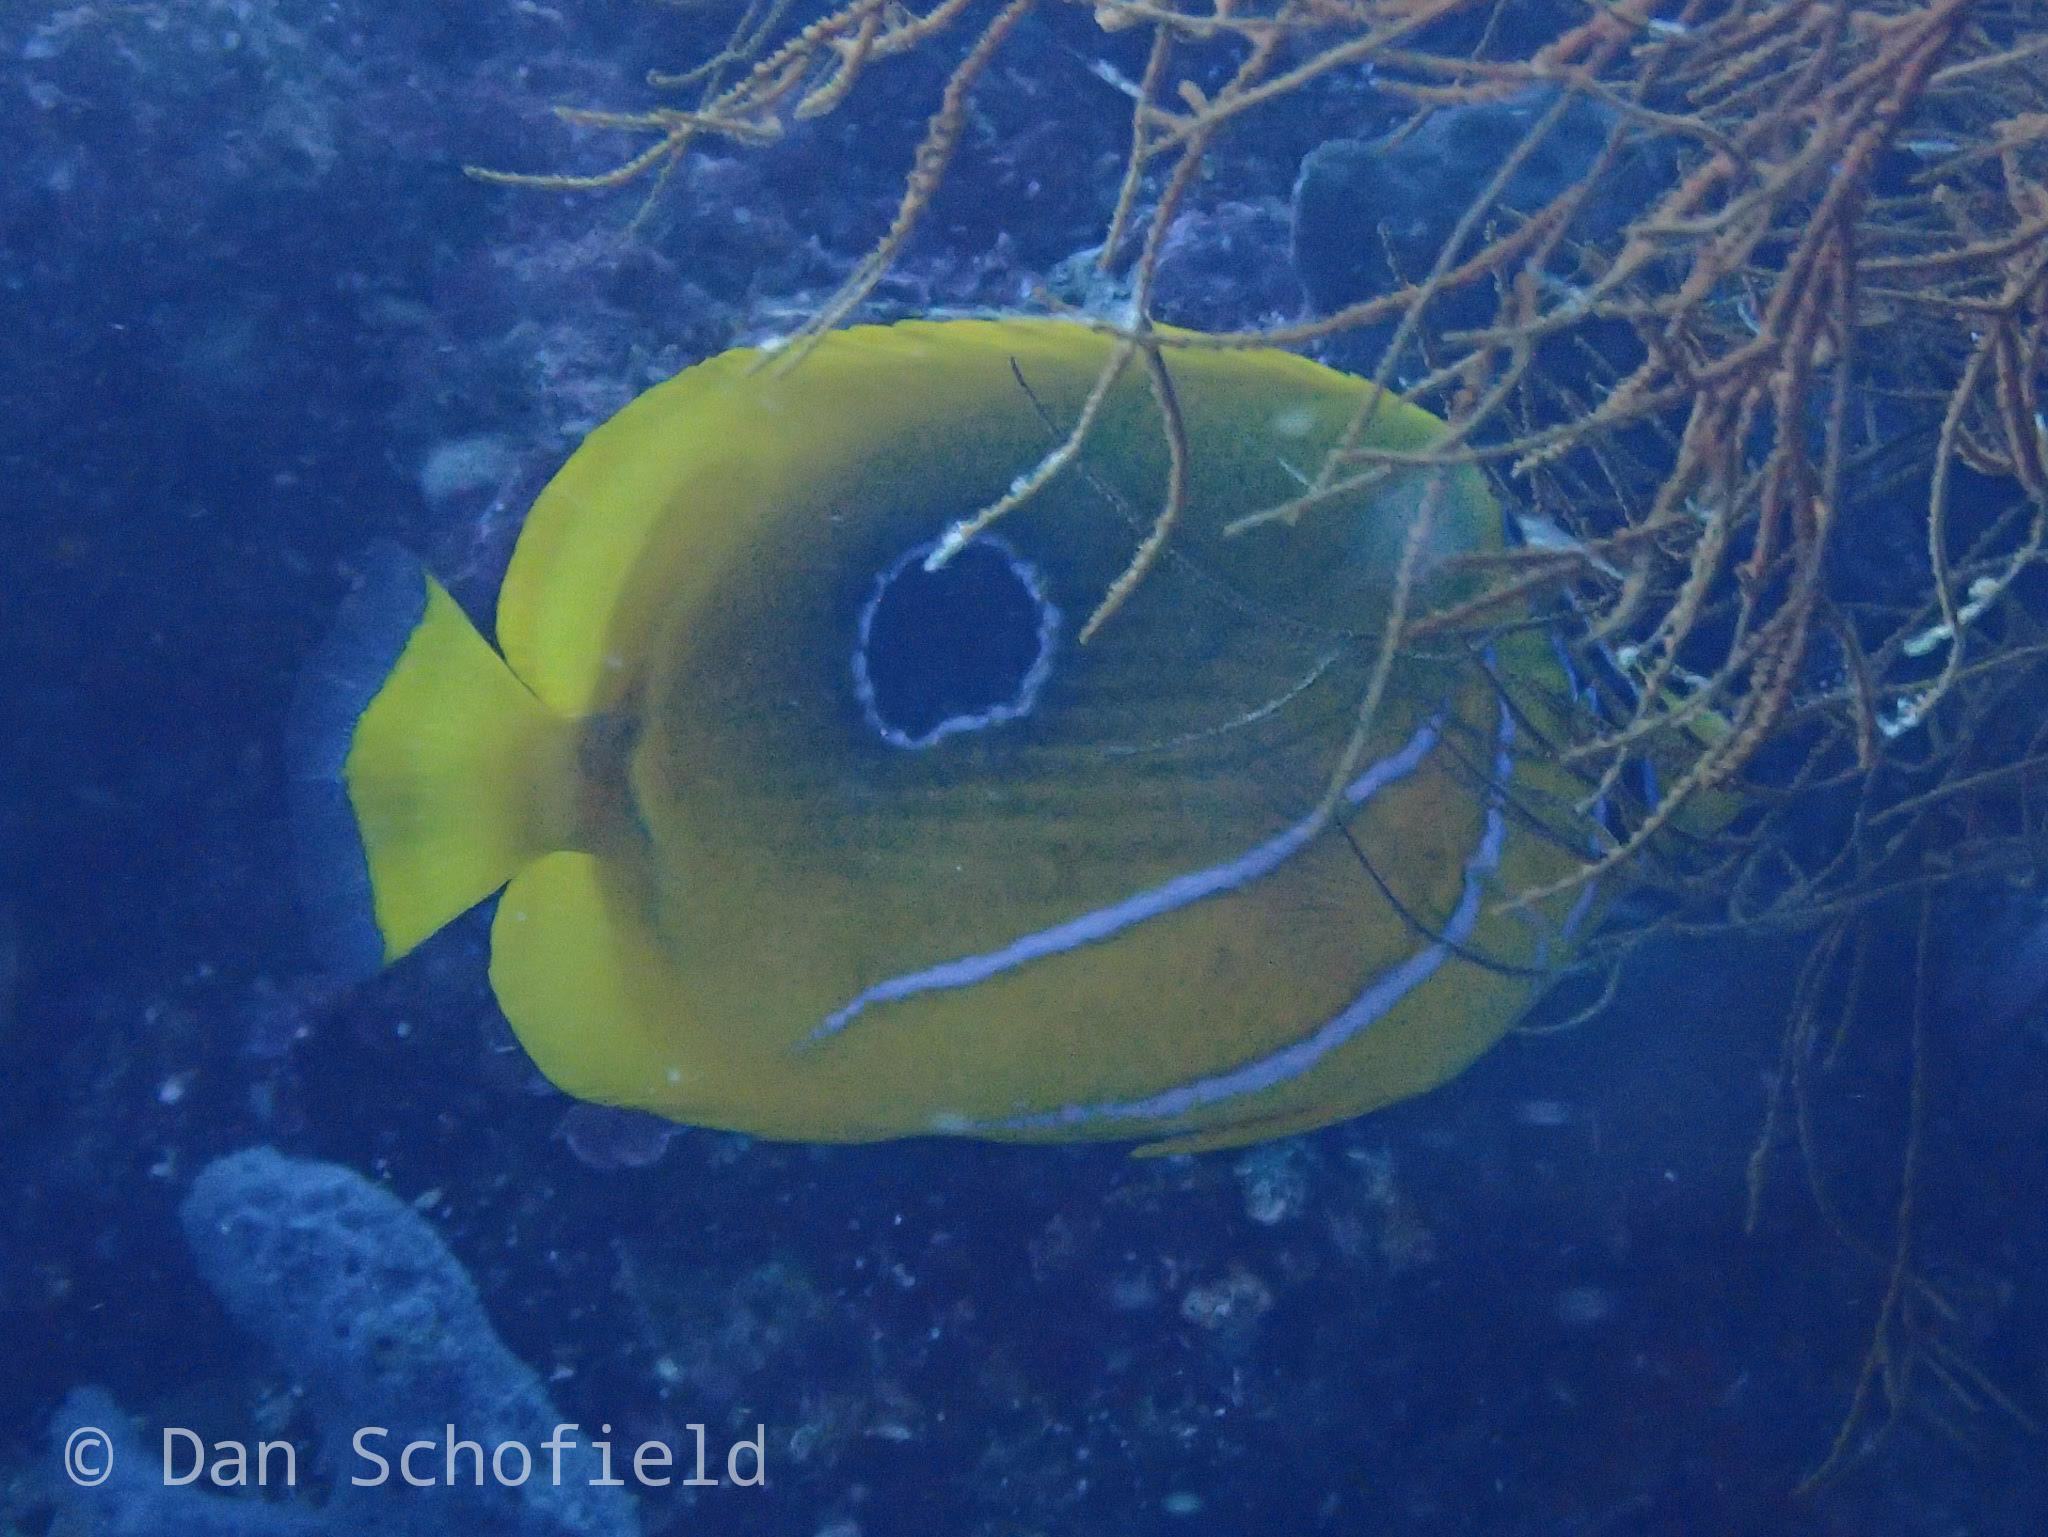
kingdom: Animalia
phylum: Chordata
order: Perciformes
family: Chaetodontidae
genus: Chaetodon
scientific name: Chaetodon bennetti
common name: Bennett's butterflyfish
